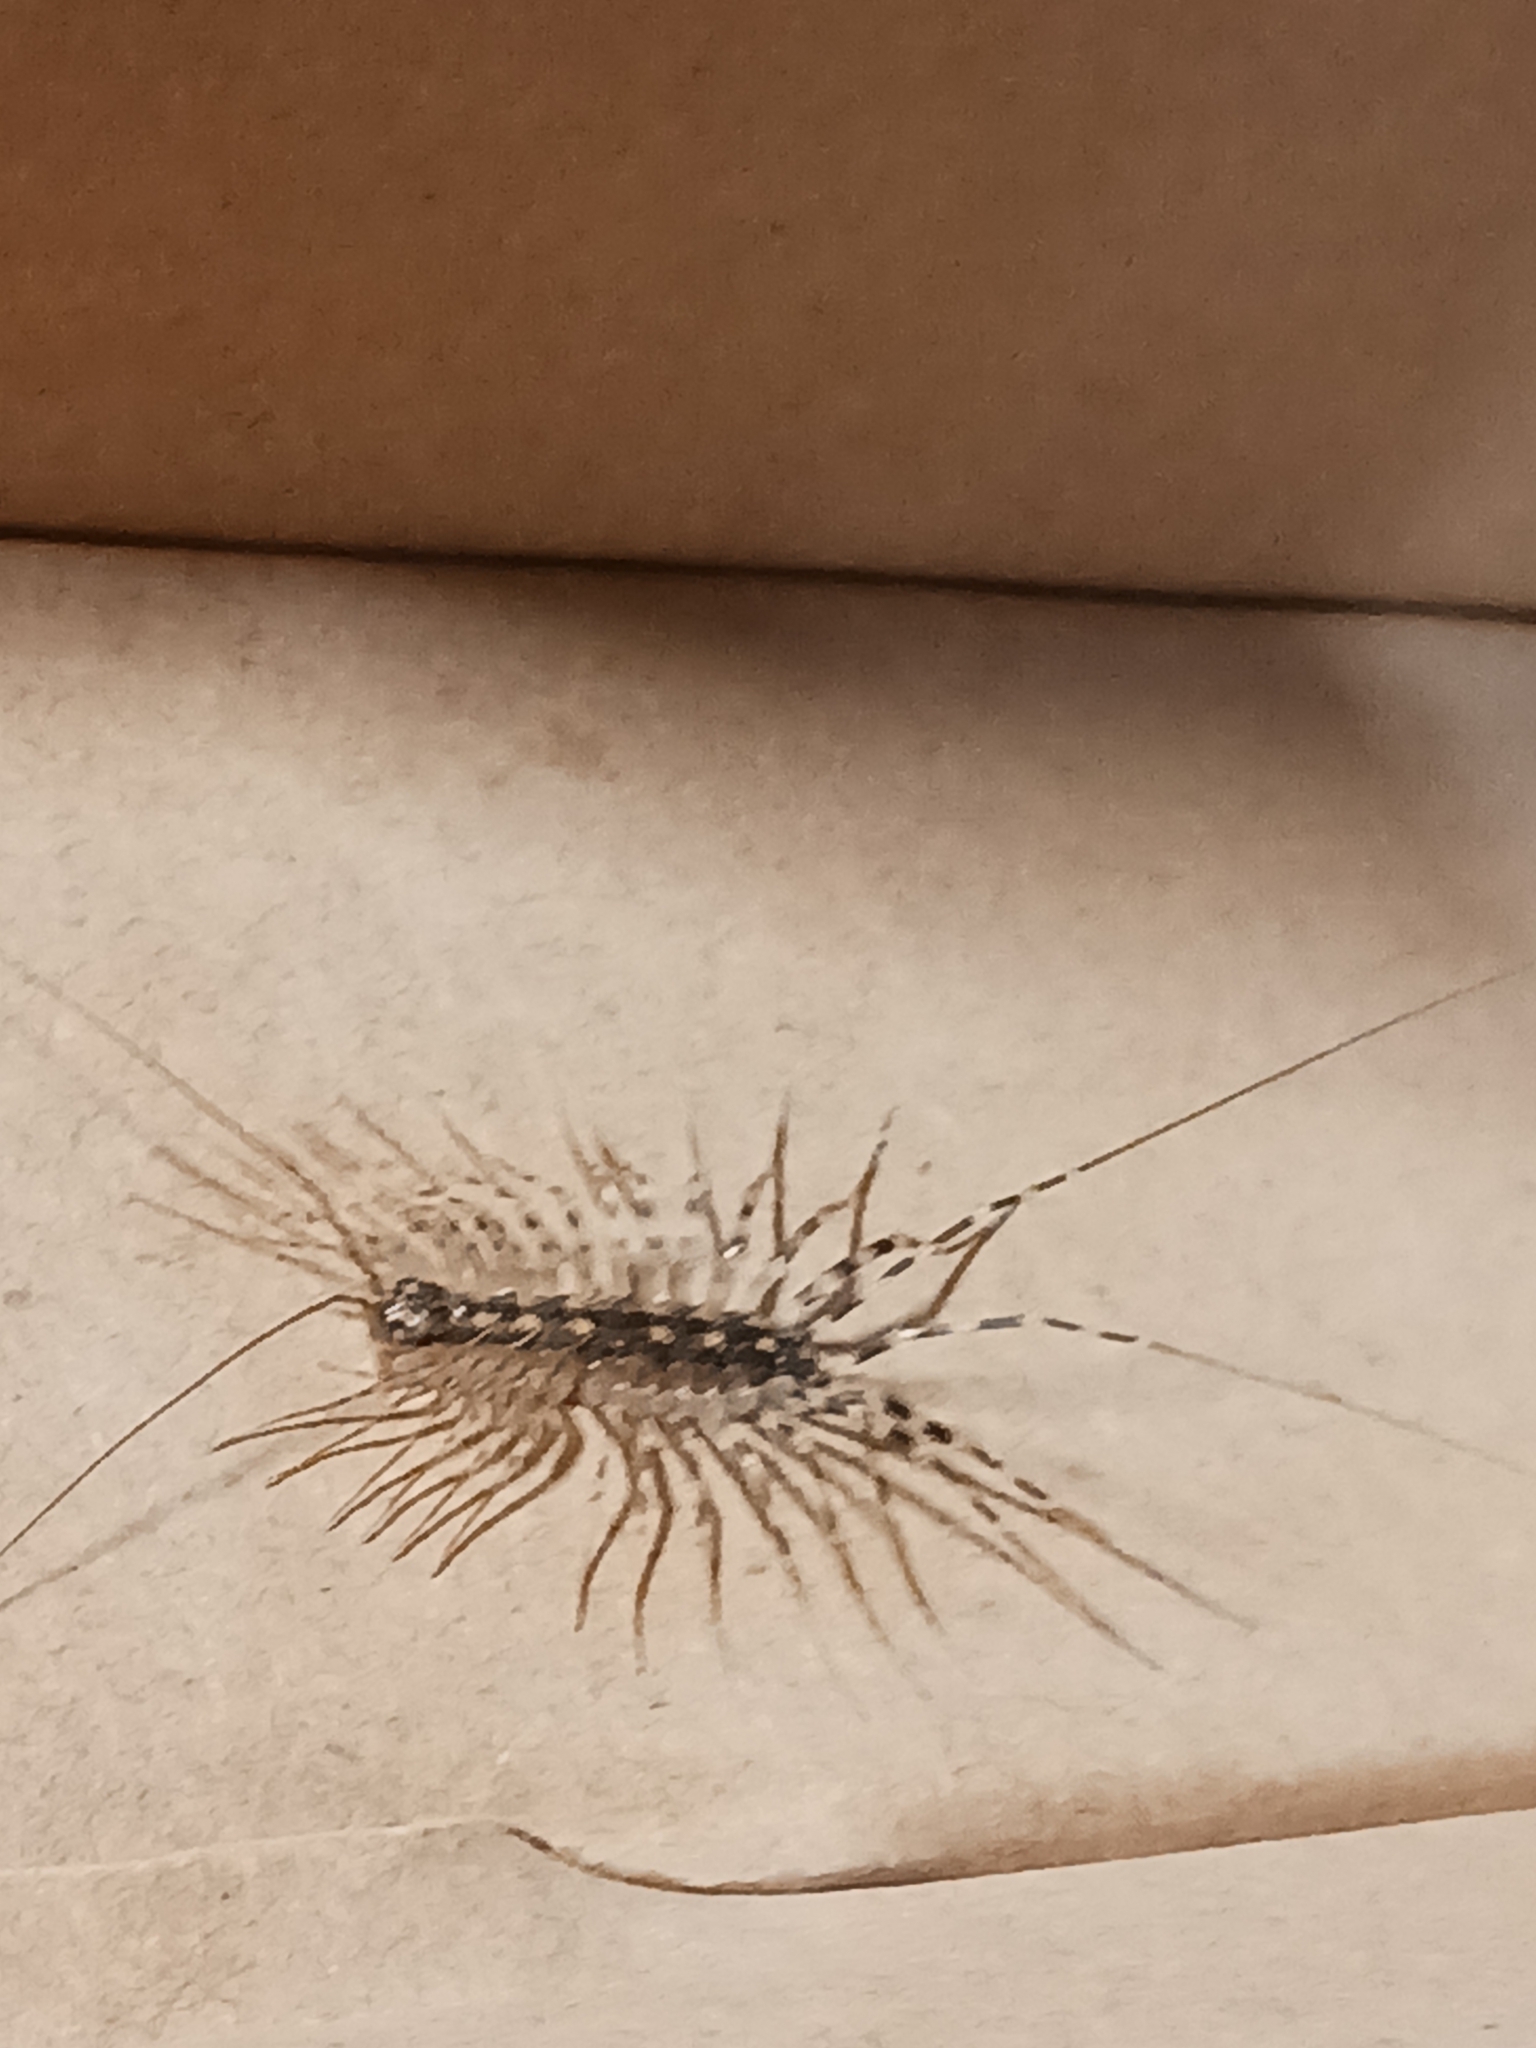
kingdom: Animalia
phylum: Arthropoda
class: Chilopoda
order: Scutigeromorpha
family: Scutigeridae
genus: Thereuonema
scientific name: Thereuonema tuberculata
